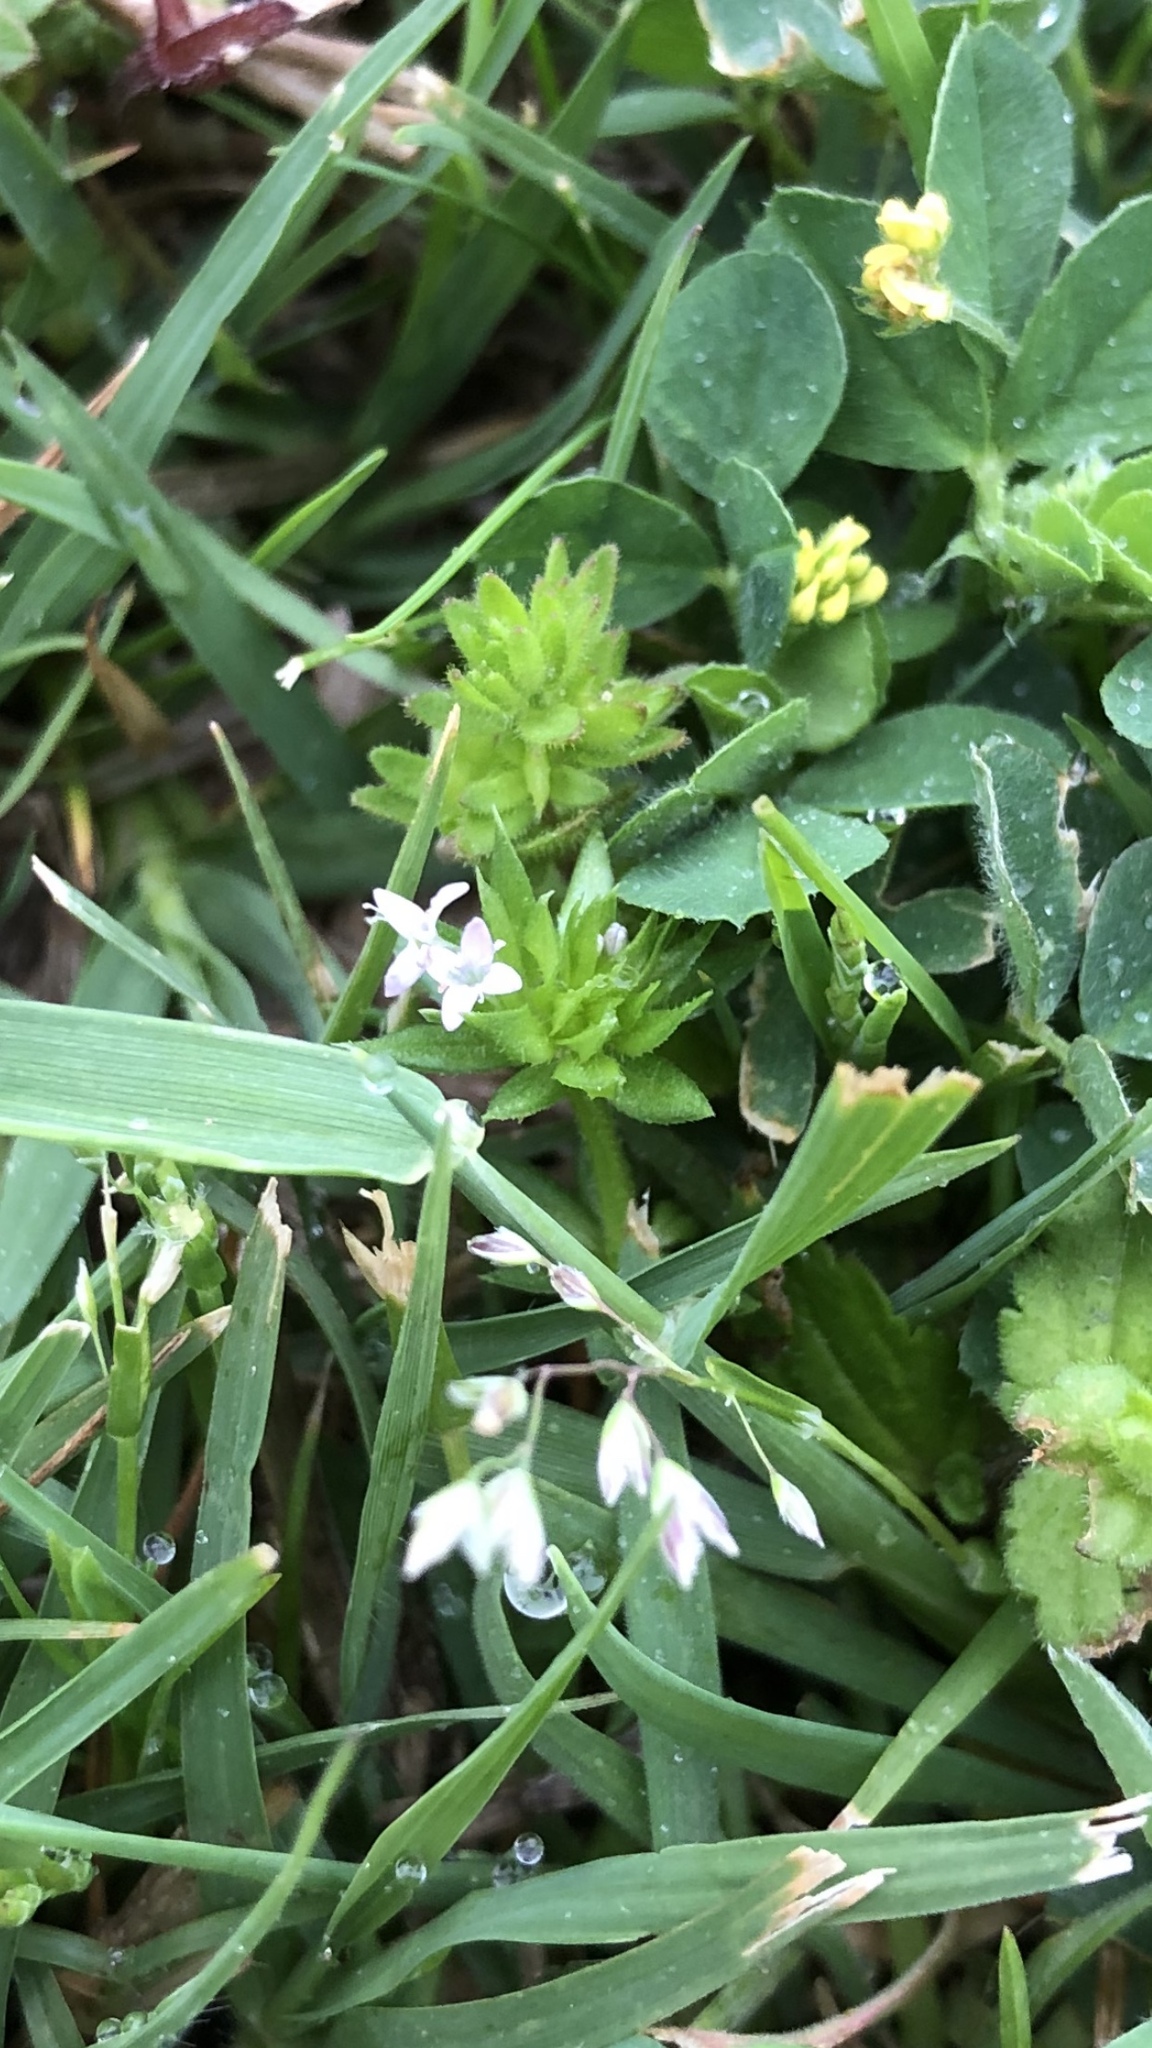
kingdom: Plantae
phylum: Tracheophyta
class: Magnoliopsida
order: Gentianales
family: Rubiaceae
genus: Sherardia
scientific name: Sherardia arvensis
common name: Field madder
